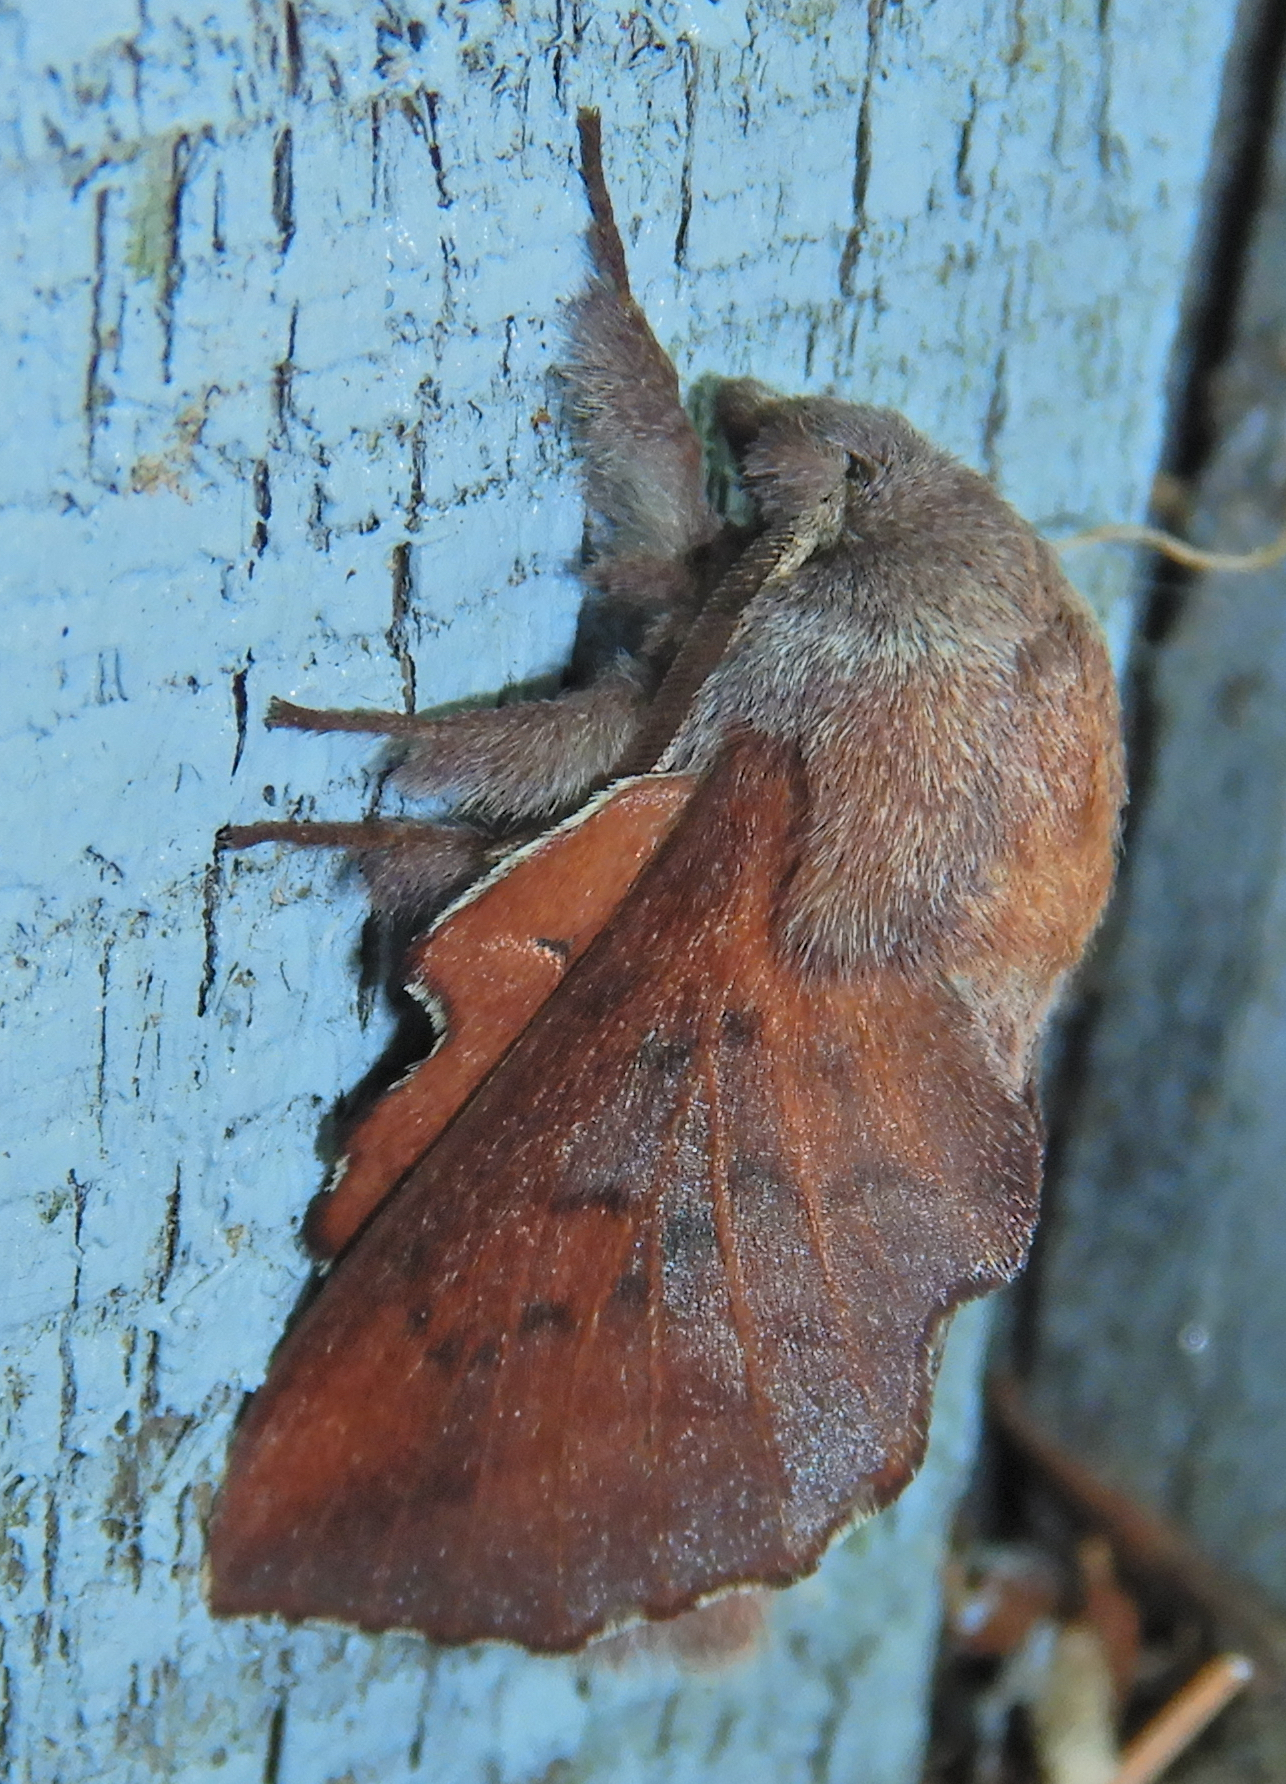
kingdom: Animalia
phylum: Arthropoda
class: Insecta
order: Lepidoptera
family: Lasiocampidae
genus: Phyllodesma
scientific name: Phyllodesma americana
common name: American lappet moth
